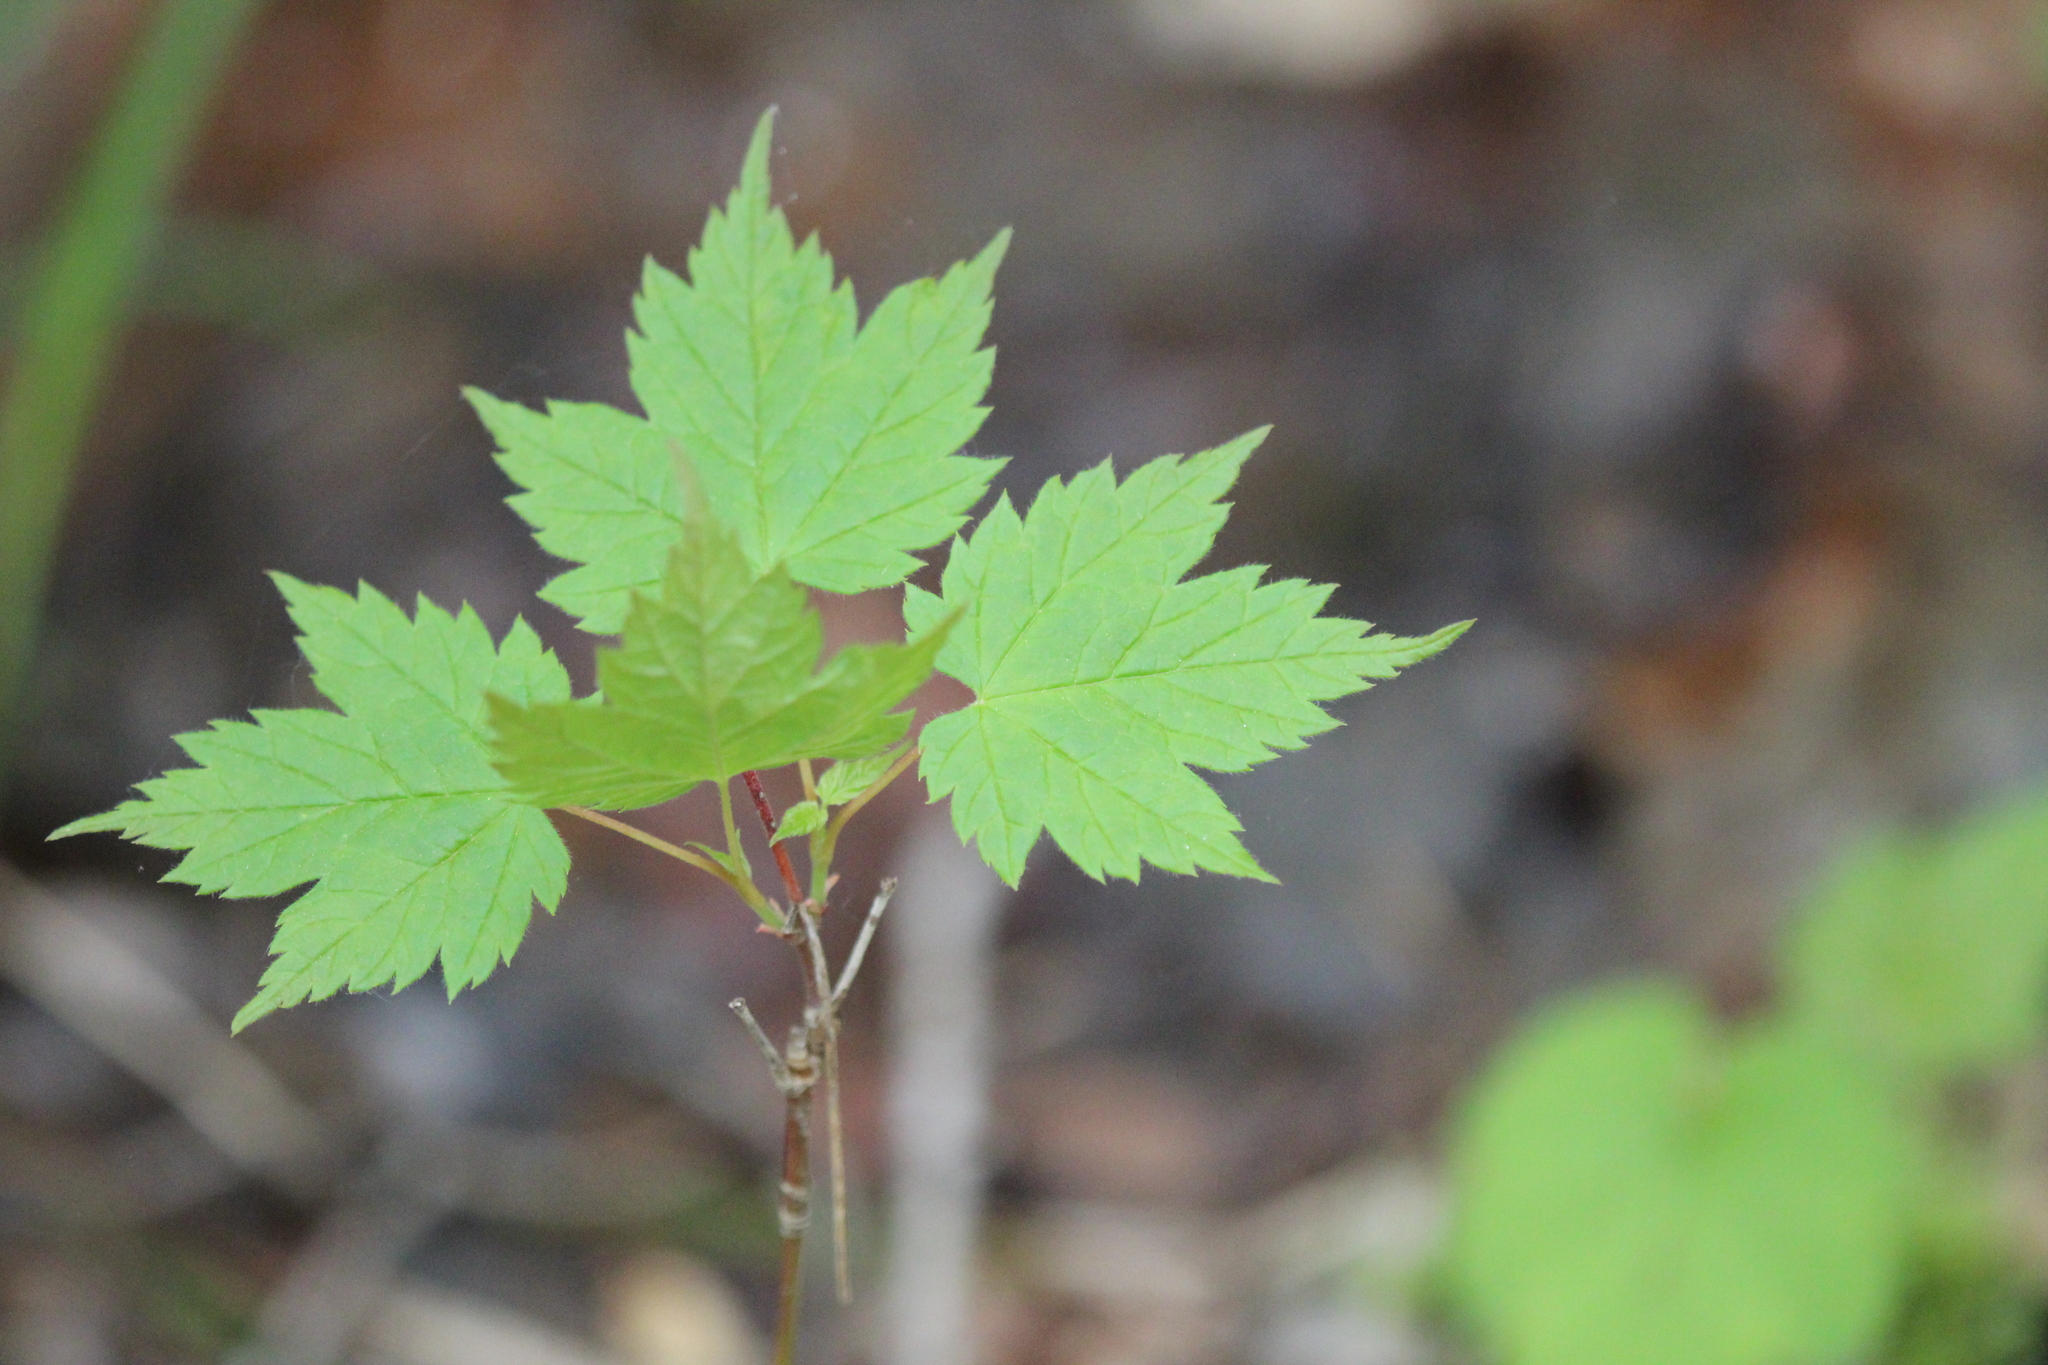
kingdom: Plantae
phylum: Tracheophyta
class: Magnoliopsida
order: Sapindales
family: Sapindaceae
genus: Acer
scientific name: Acer spicatum
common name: Mountain maple
